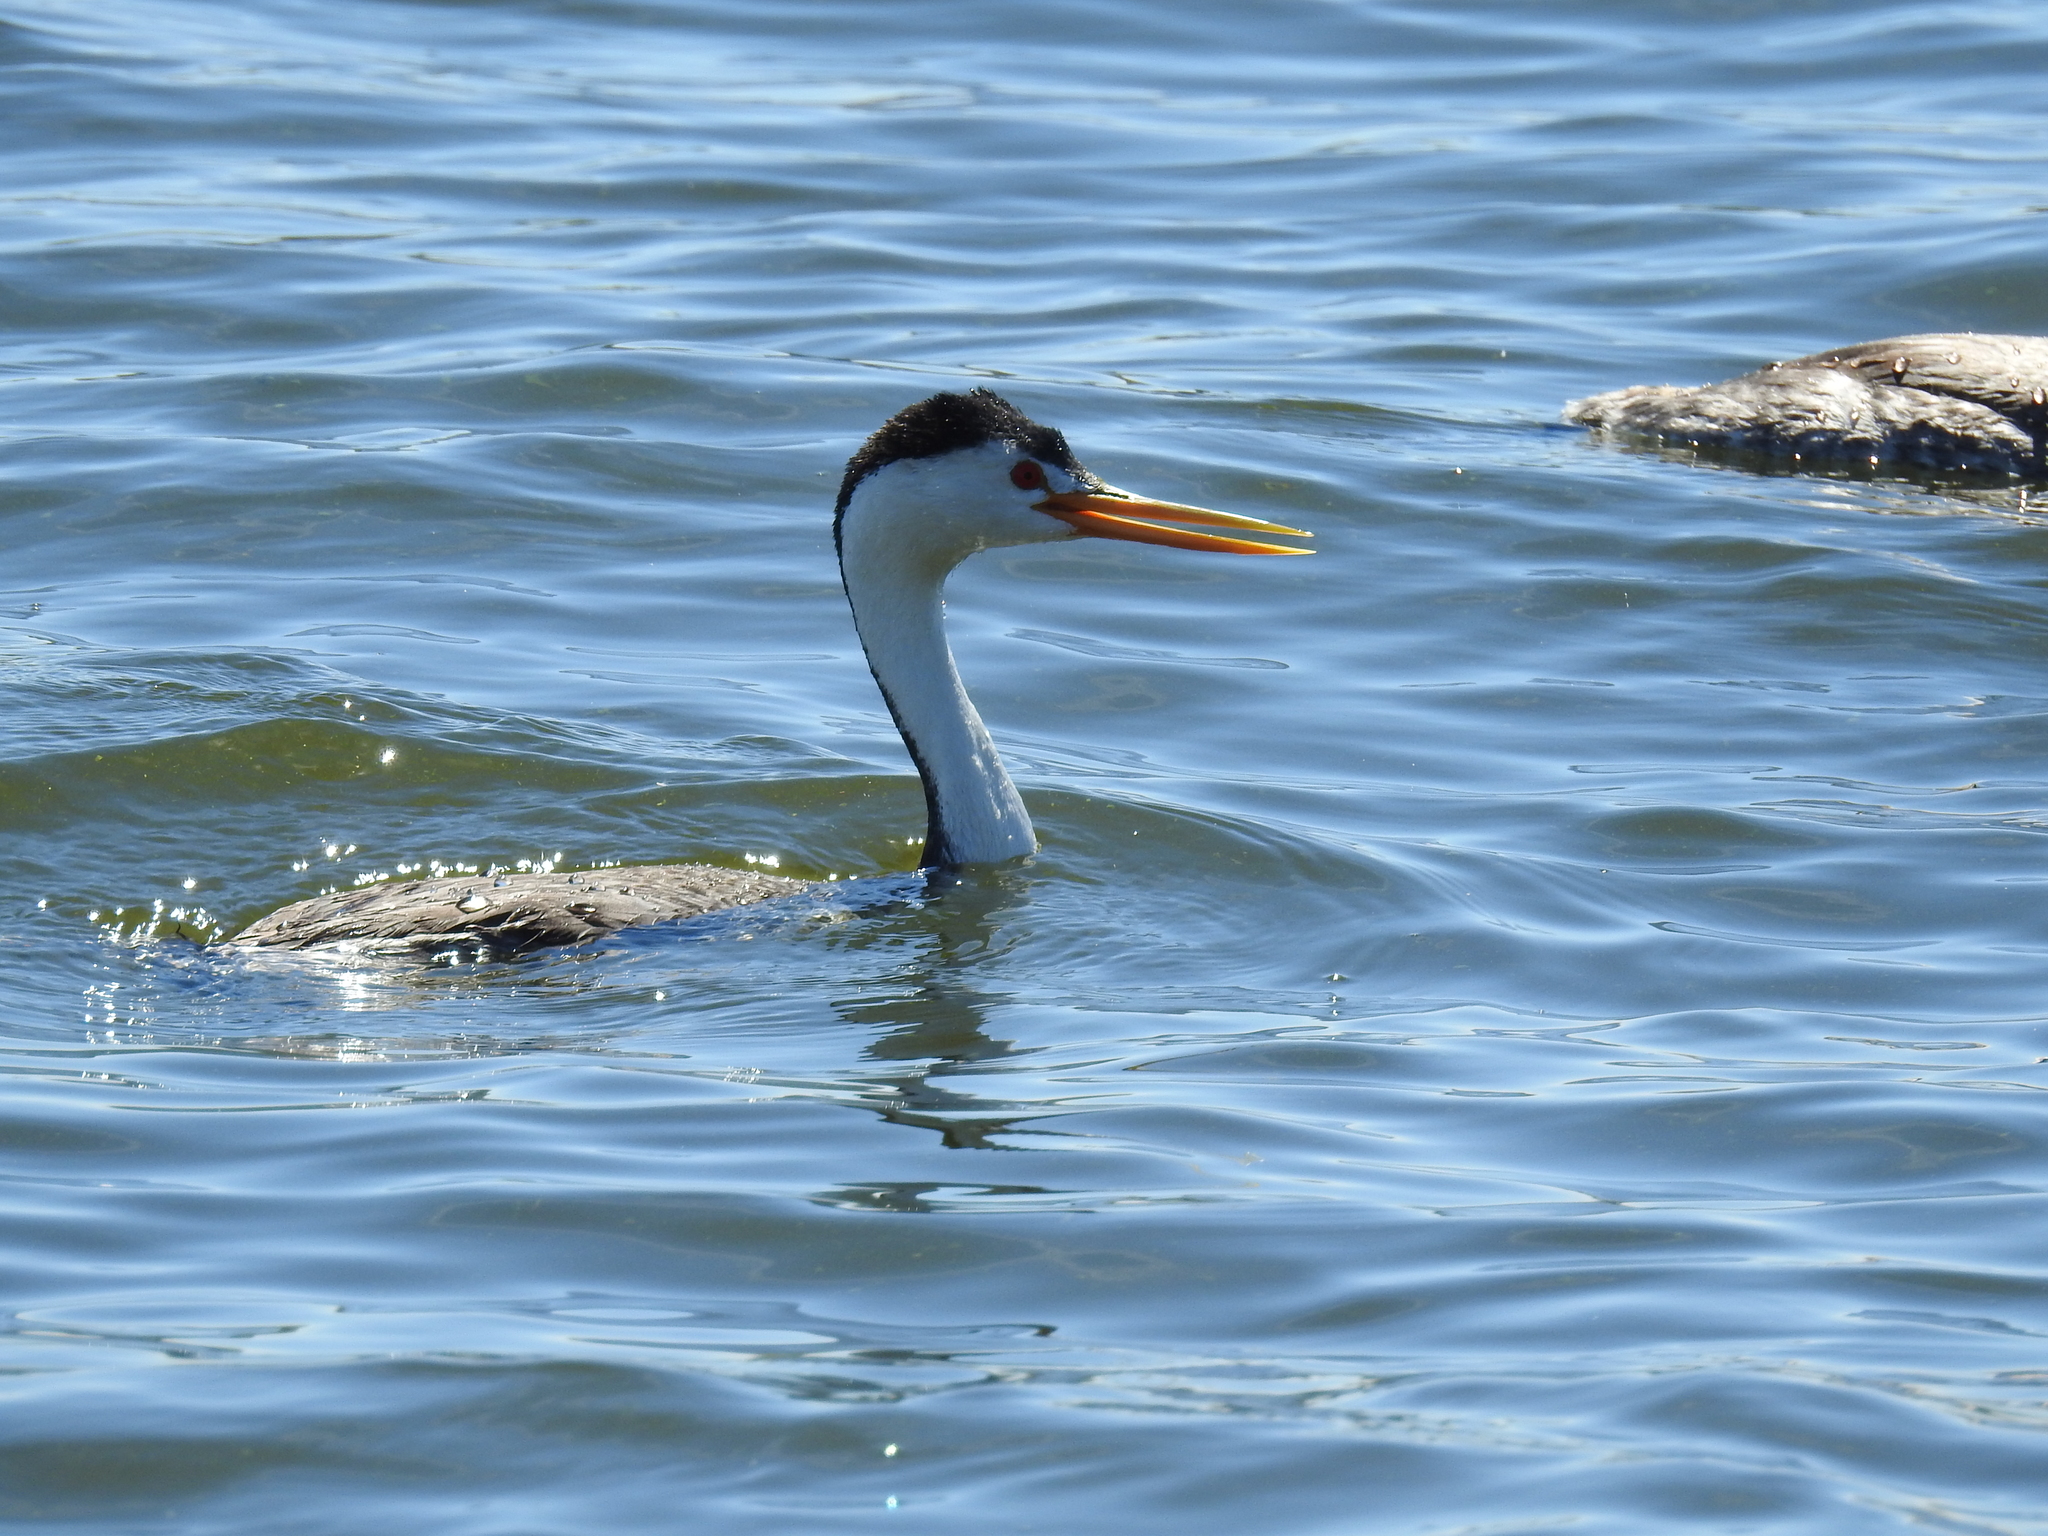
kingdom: Animalia
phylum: Chordata
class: Aves
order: Podicipediformes
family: Podicipedidae
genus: Aechmophorus
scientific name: Aechmophorus clarkii
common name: Clark's grebe
